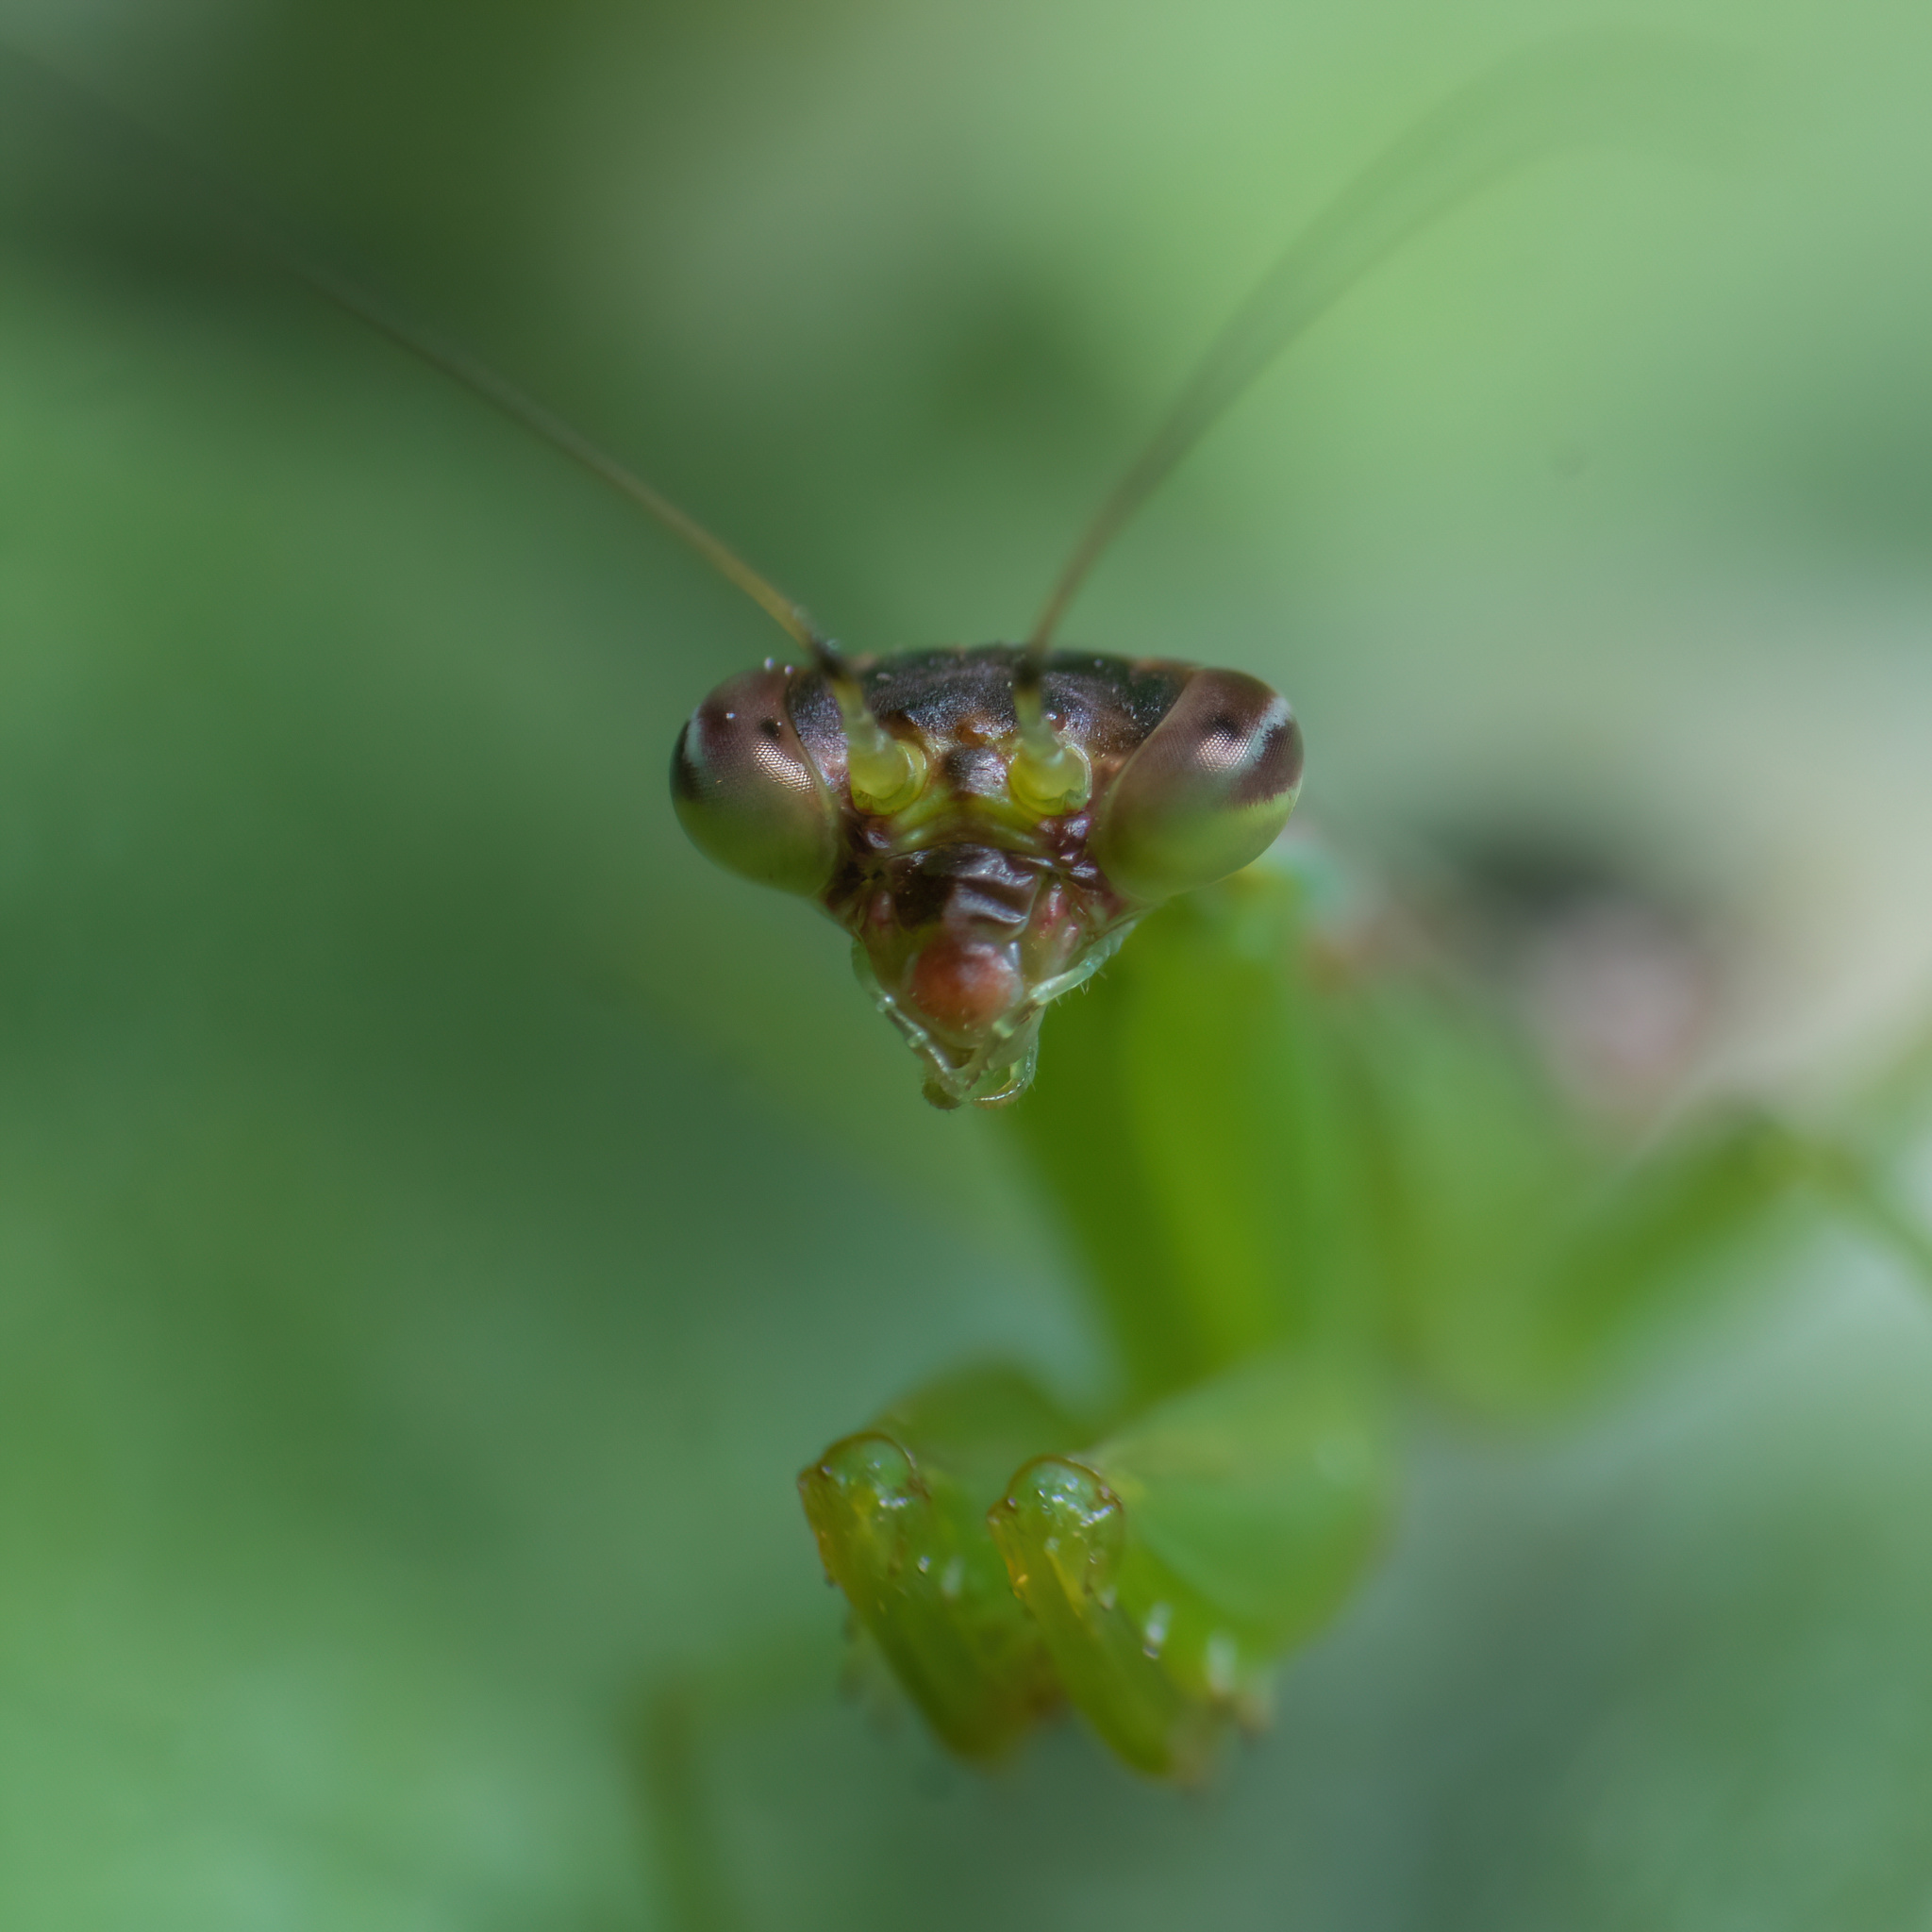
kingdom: Animalia
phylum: Arthropoda
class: Insecta
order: Mantodea
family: Hymenopodidae
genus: Odontomantis
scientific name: Odontomantis planiceps
